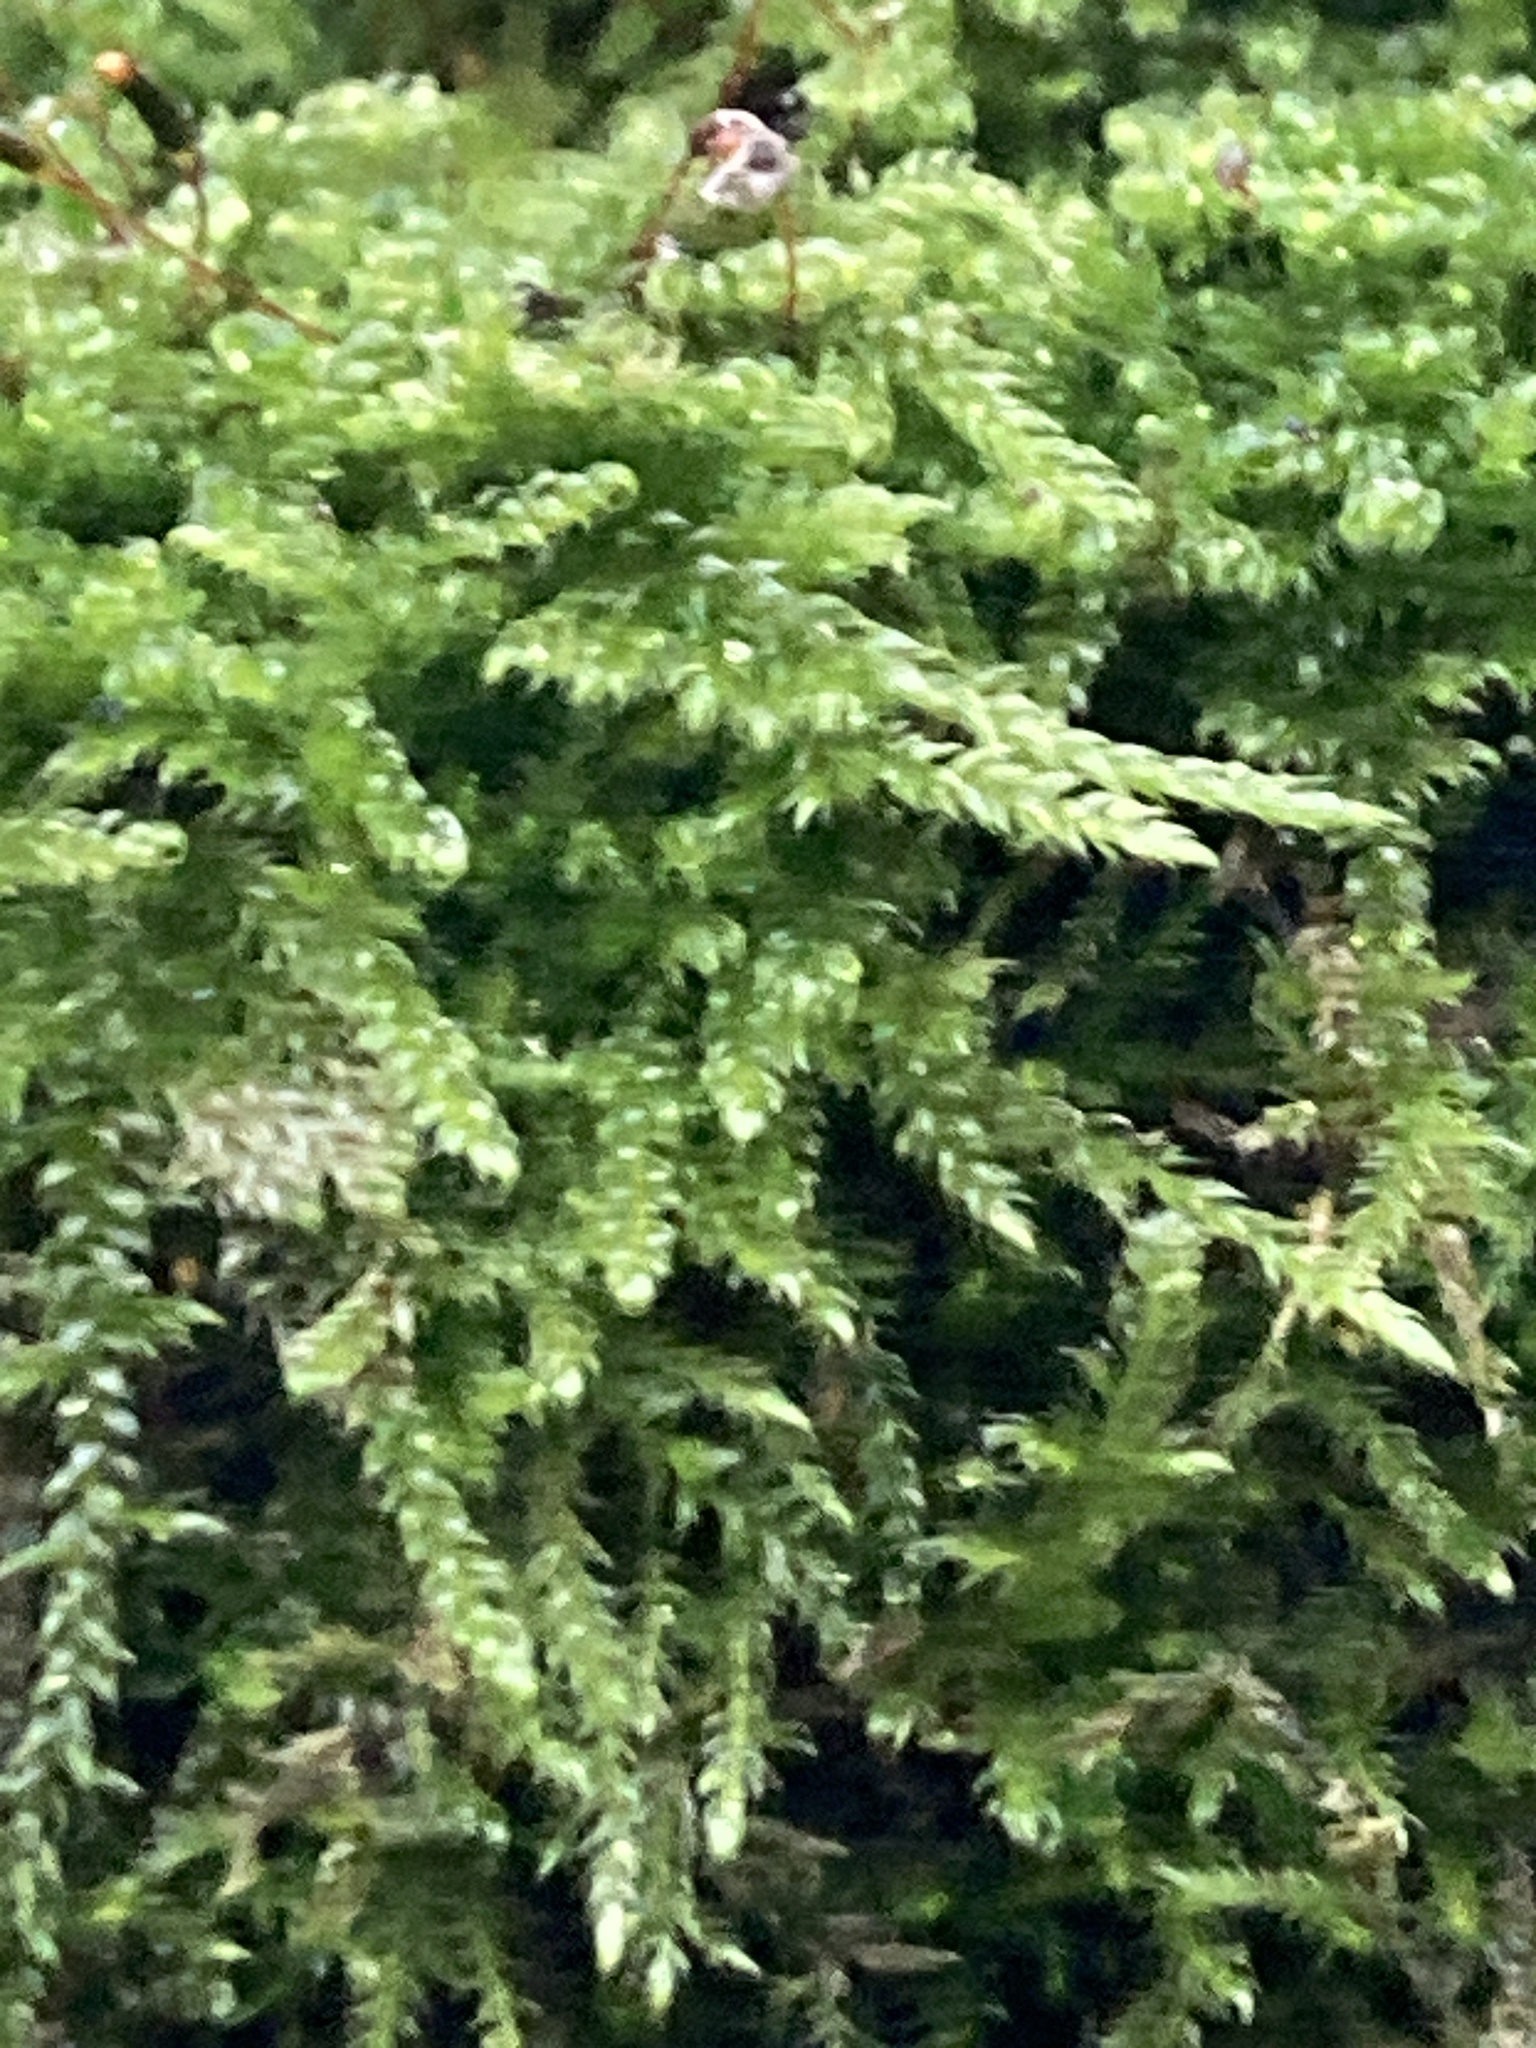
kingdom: Plantae
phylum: Bryophyta
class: Bryopsida
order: Hypnales
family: Hypnaceae
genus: Hypnum
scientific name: Hypnum cupressiforme
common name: Cypress-leaved plait-moss
